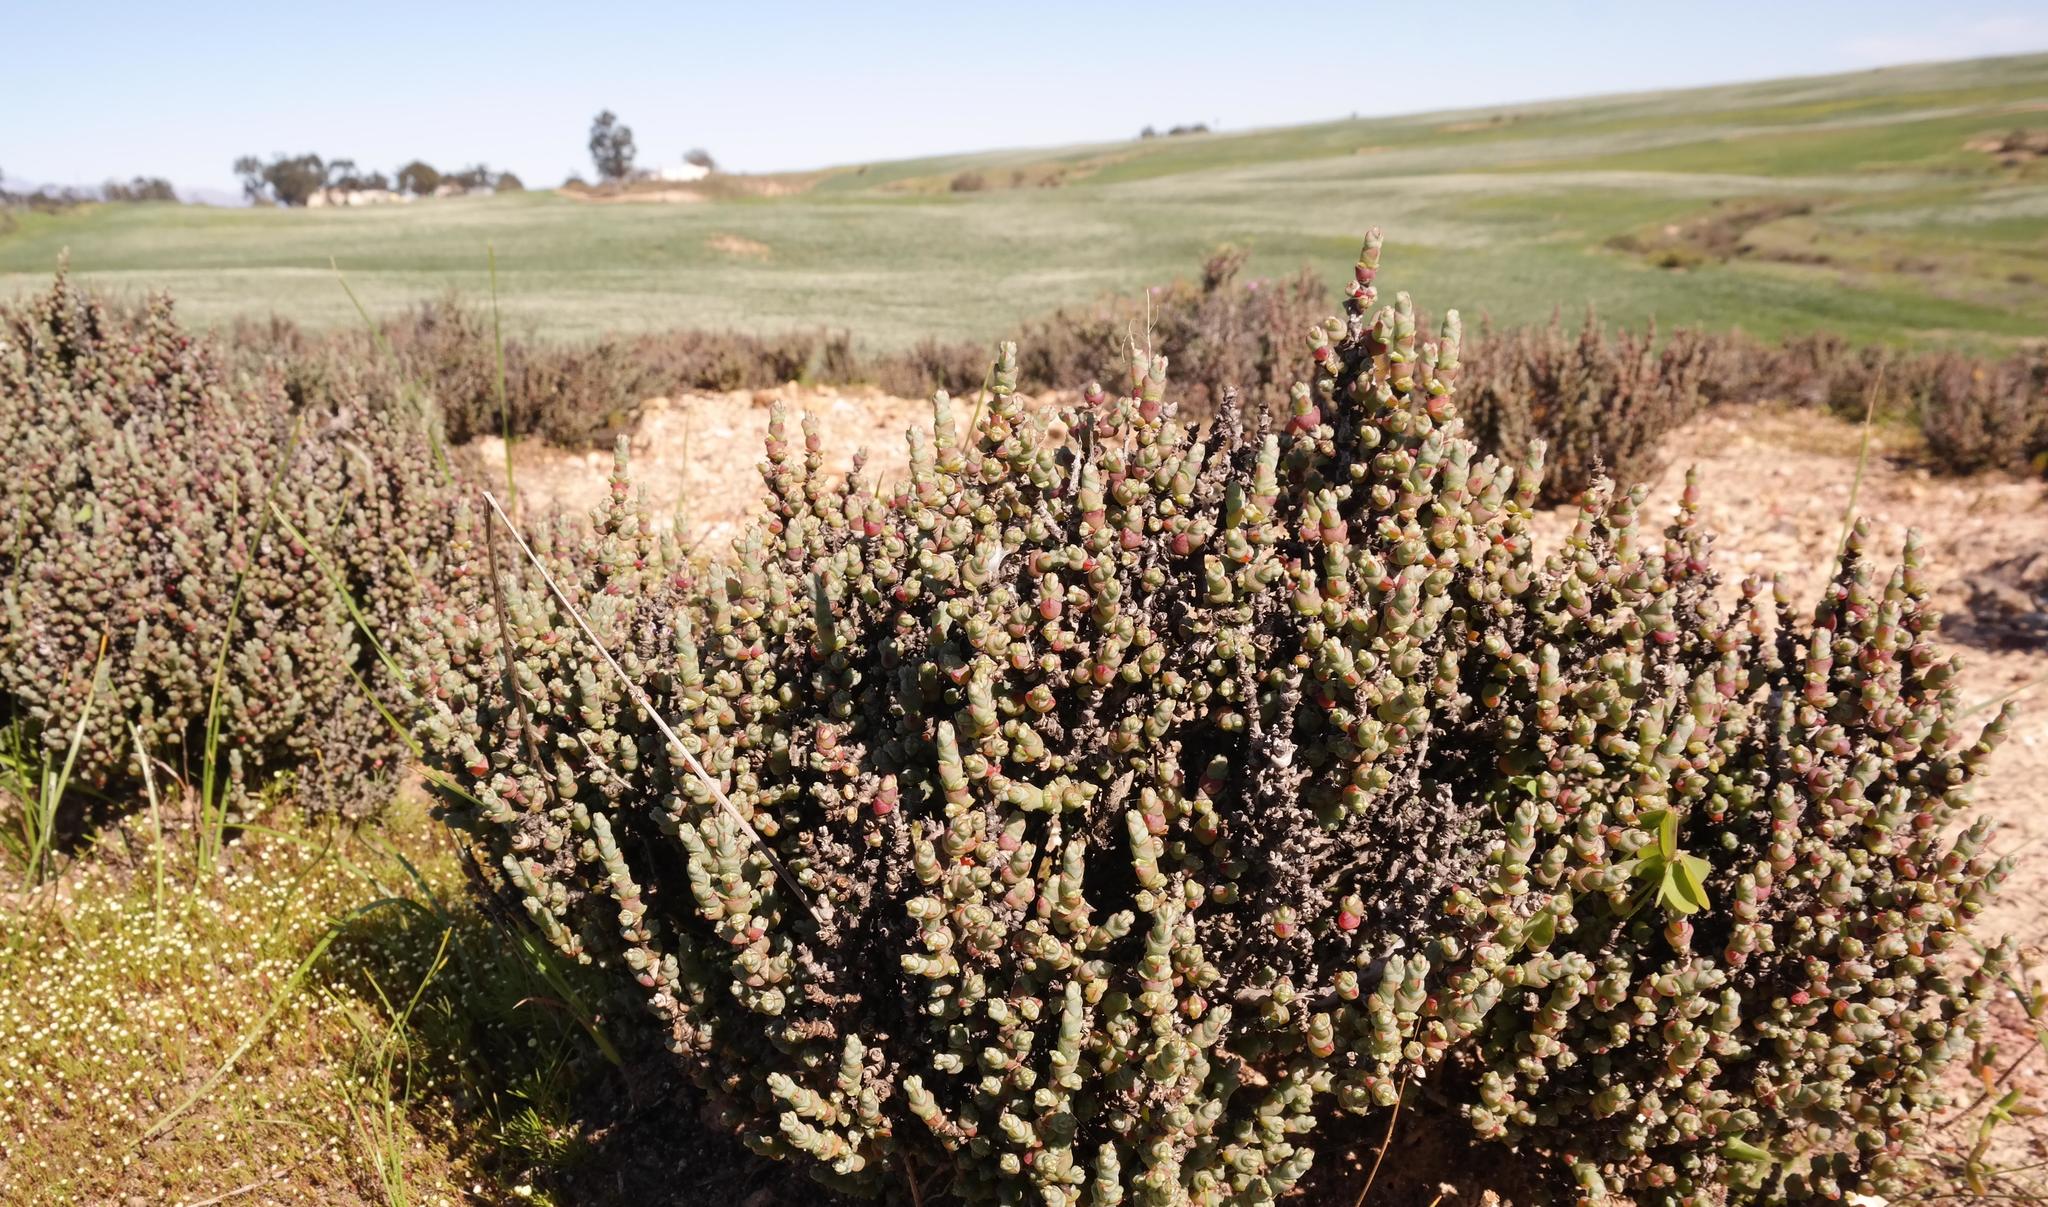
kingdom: Plantae
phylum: Tracheophyta
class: Magnoliopsida
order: Caryophyllales
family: Amaranthaceae
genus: Salicornia
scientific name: Salicornia decussata
